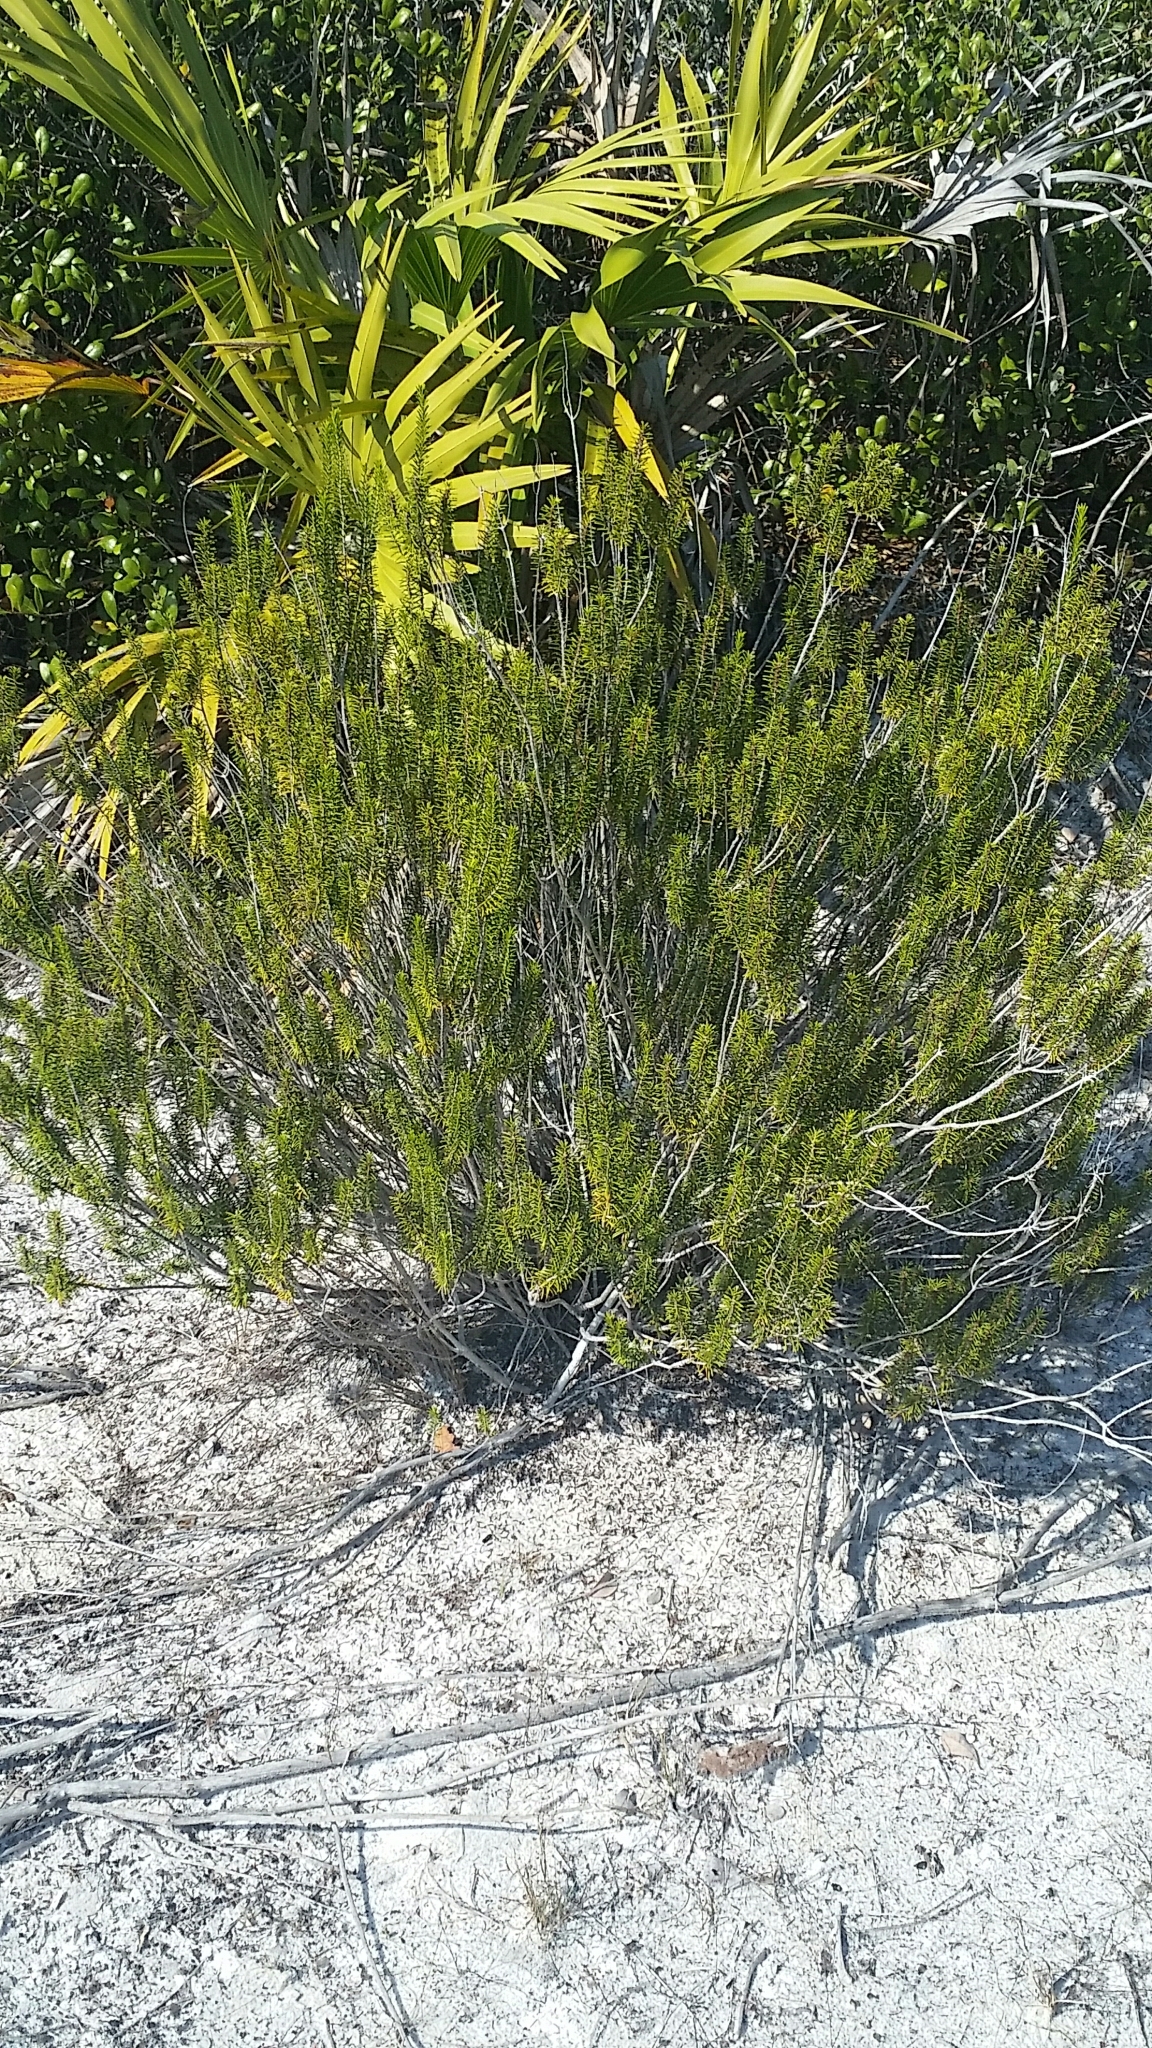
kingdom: Plantae
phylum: Tracheophyta
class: Magnoliopsida
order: Ericales
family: Ericaceae
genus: Ceratiola
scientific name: Ceratiola ericoides
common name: Sandhill-rosemary
